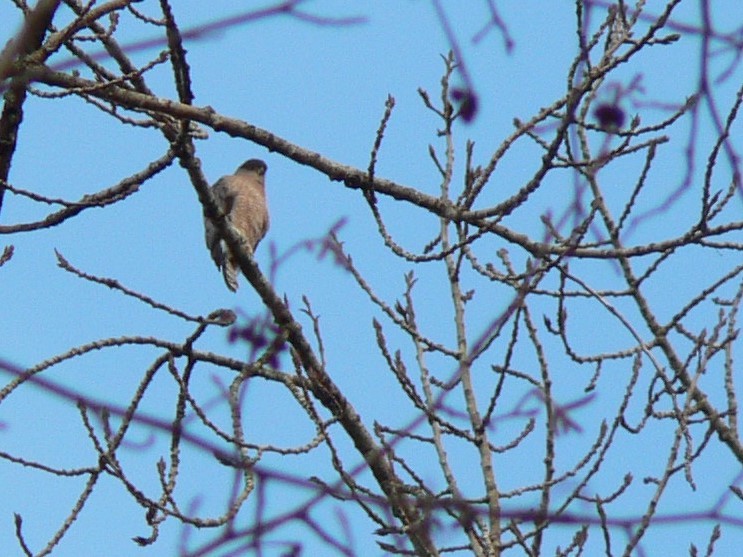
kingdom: Animalia
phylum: Chordata
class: Aves
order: Accipitriformes
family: Accipitridae
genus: Accipiter
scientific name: Accipiter cooperii
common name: Cooper's hawk
